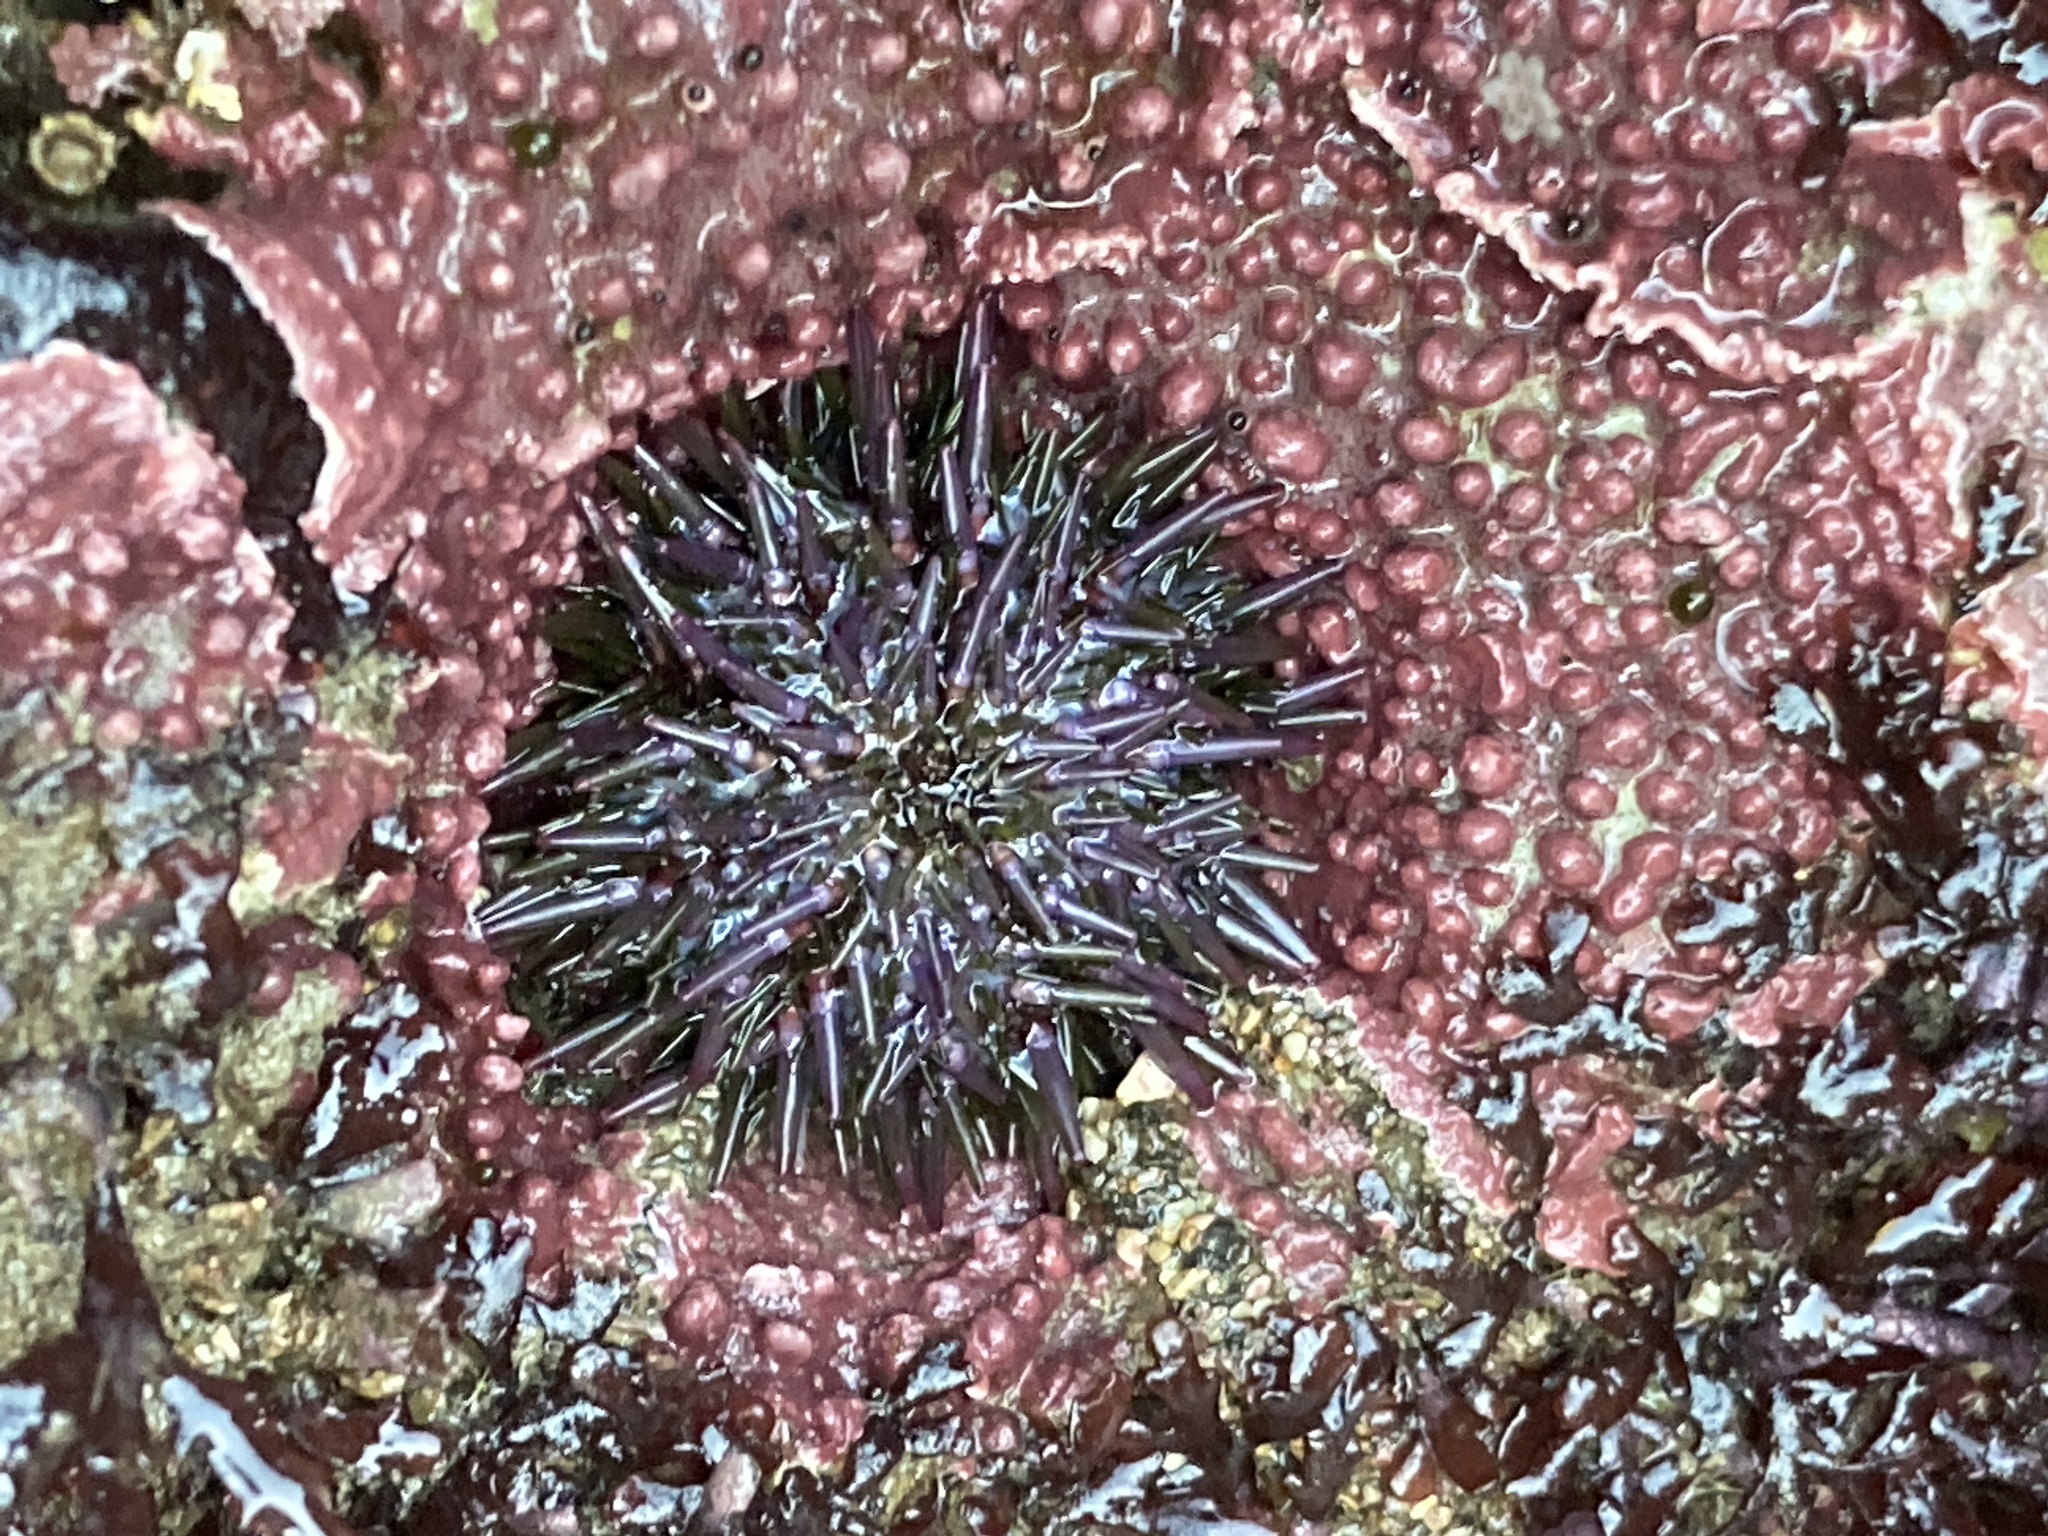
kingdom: Animalia
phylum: Echinodermata
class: Echinoidea
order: Camarodonta
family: Strongylocentrotidae
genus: Strongylocentrotus
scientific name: Strongylocentrotus purpuratus
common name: Purple sea urchin
